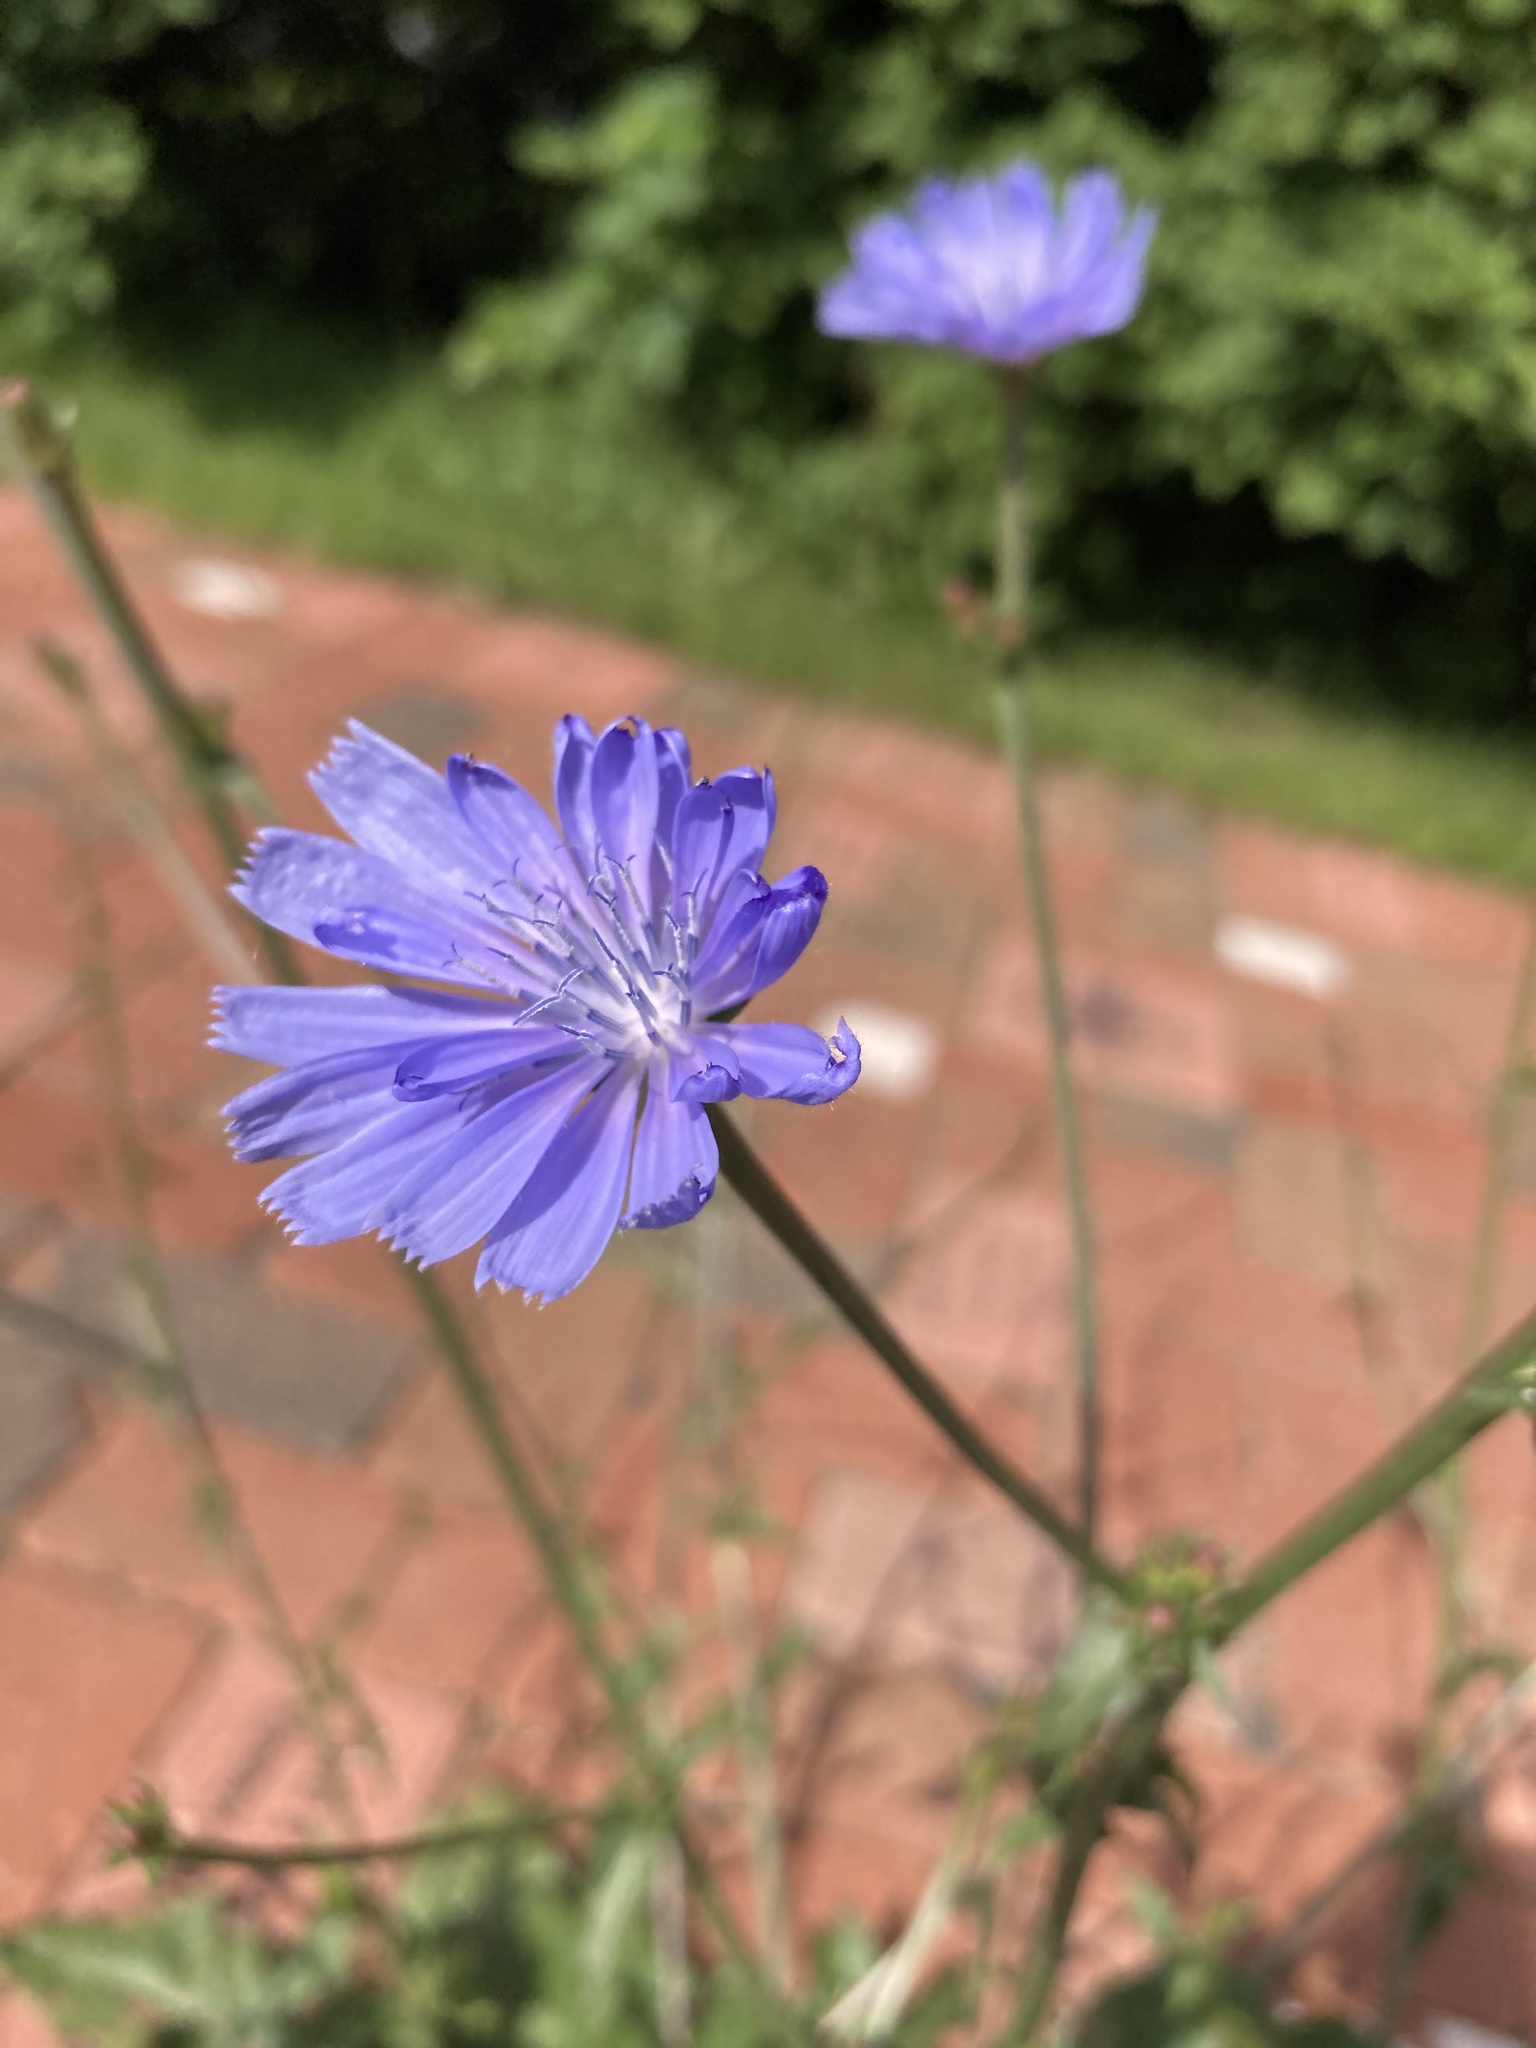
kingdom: Plantae
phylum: Tracheophyta
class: Magnoliopsida
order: Asterales
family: Asteraceae
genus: Cichorium
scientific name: Cichorium intybus
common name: Chicory
